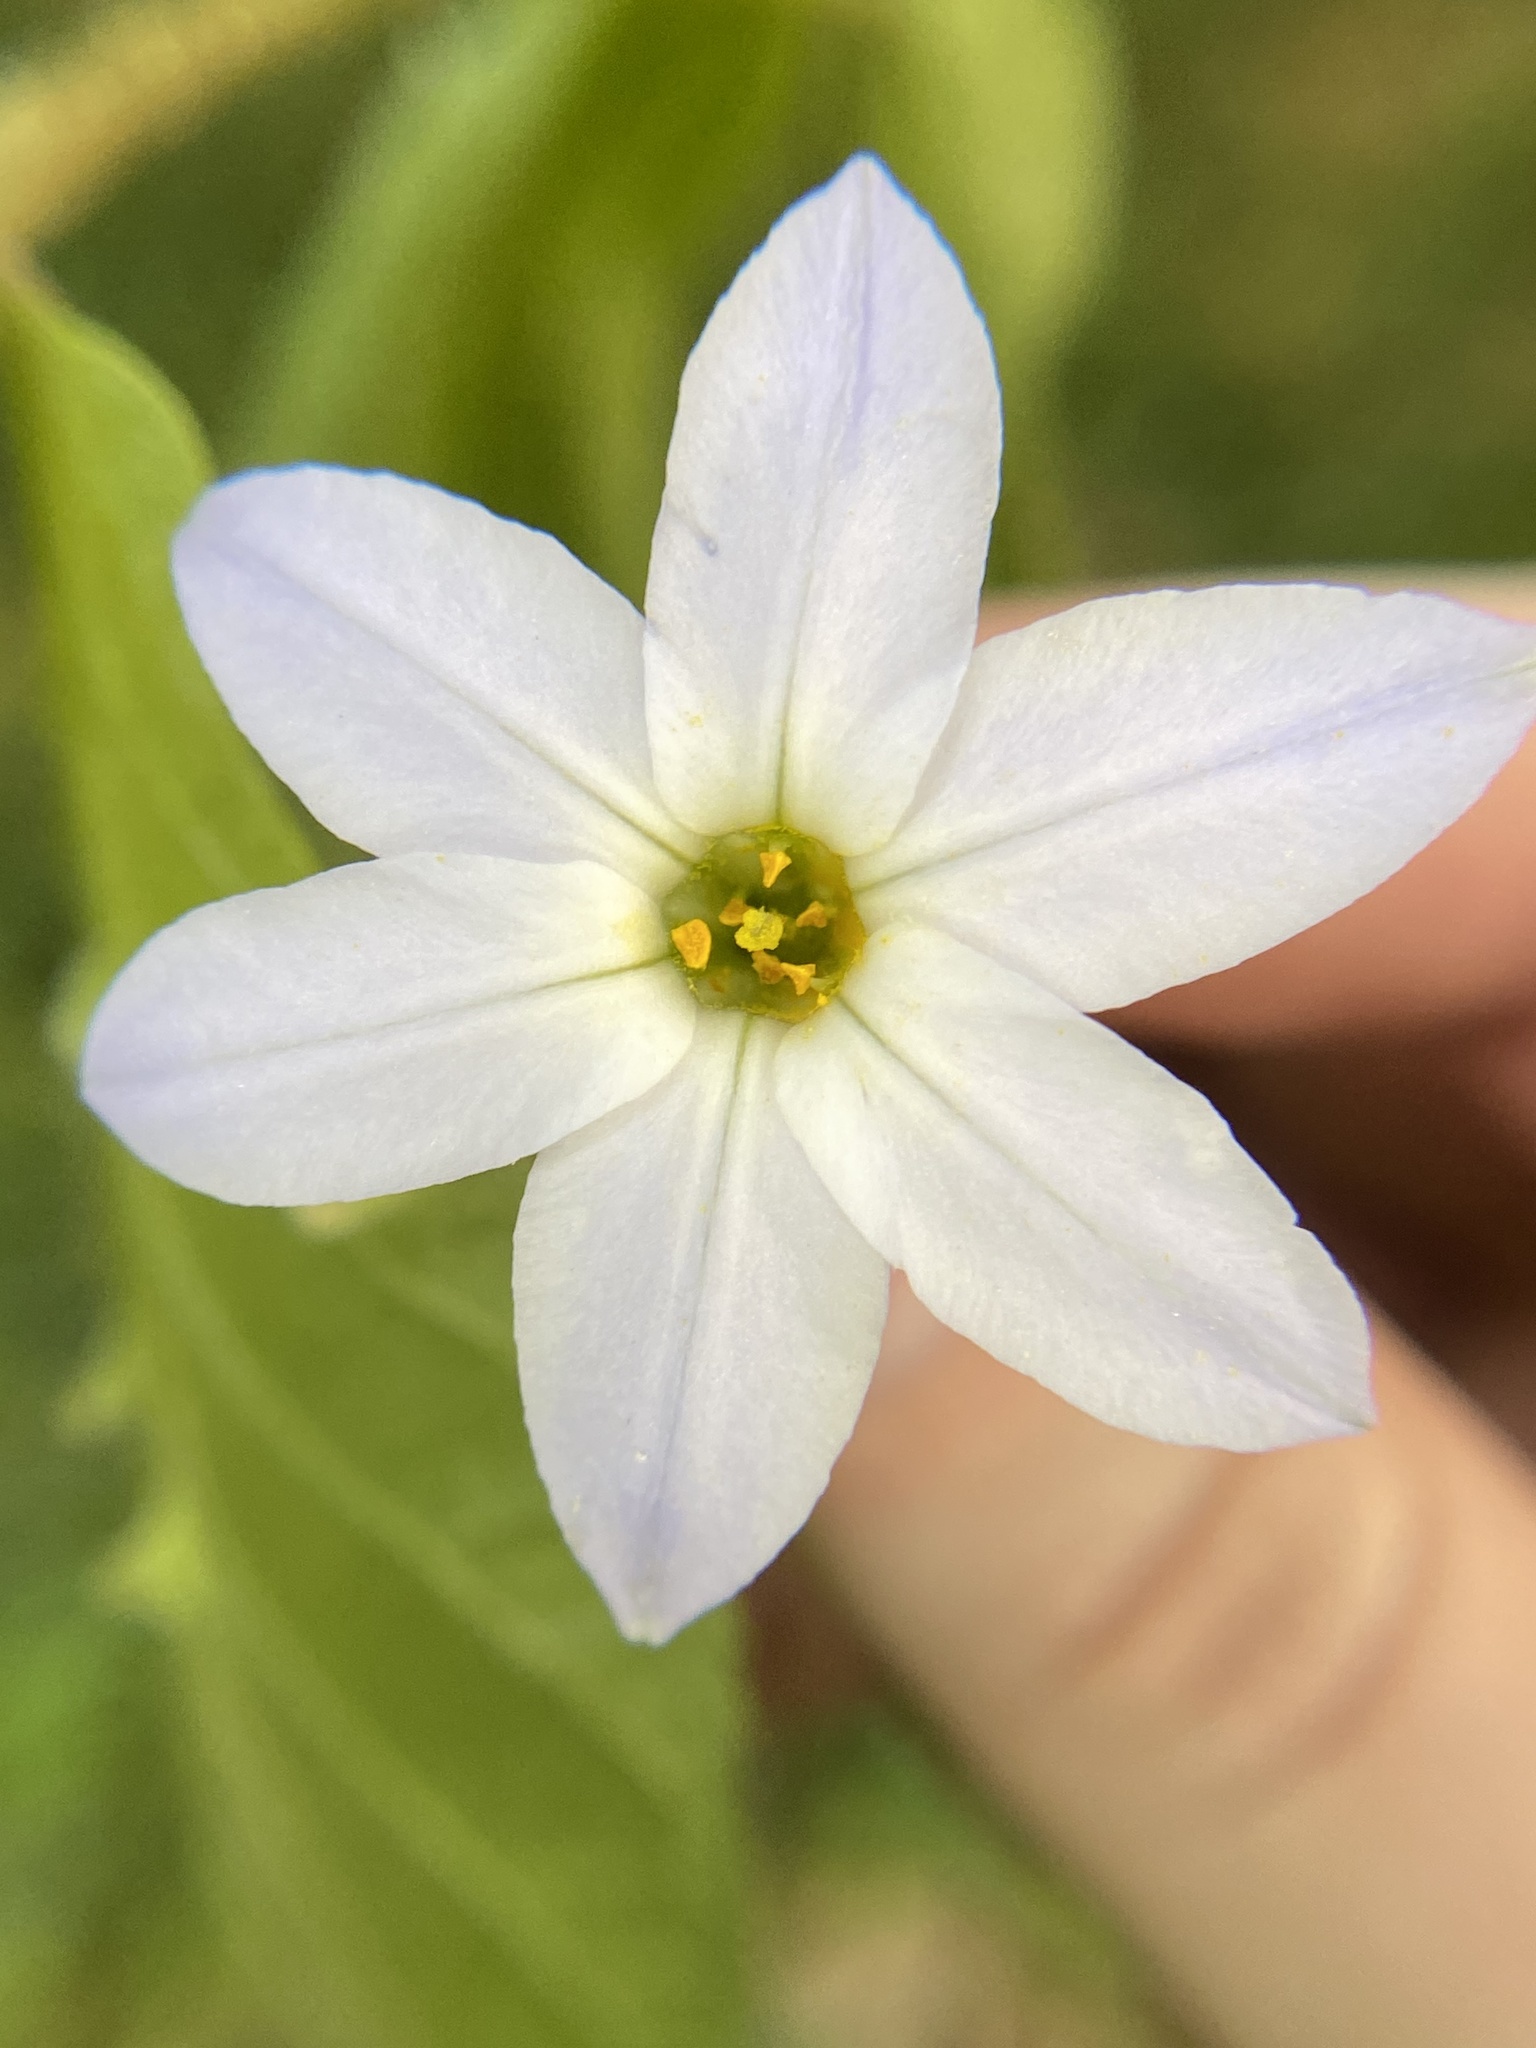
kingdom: Plantae
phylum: Tracheophyta
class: Liliopsida
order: Asparagales
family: Amaryllidaceae
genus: Ipheion
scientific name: Ipheion uniflorum
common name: Spring starflower
